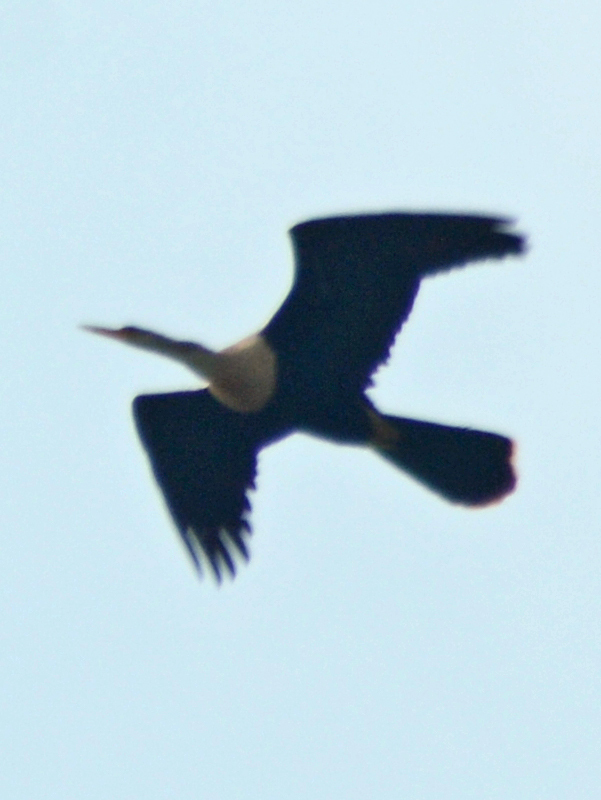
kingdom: Animalia
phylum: Chordata
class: Aves
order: Suliformes
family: Anhingidae
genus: Anhinga
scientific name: Anhinga anhinga
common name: Anhinga
